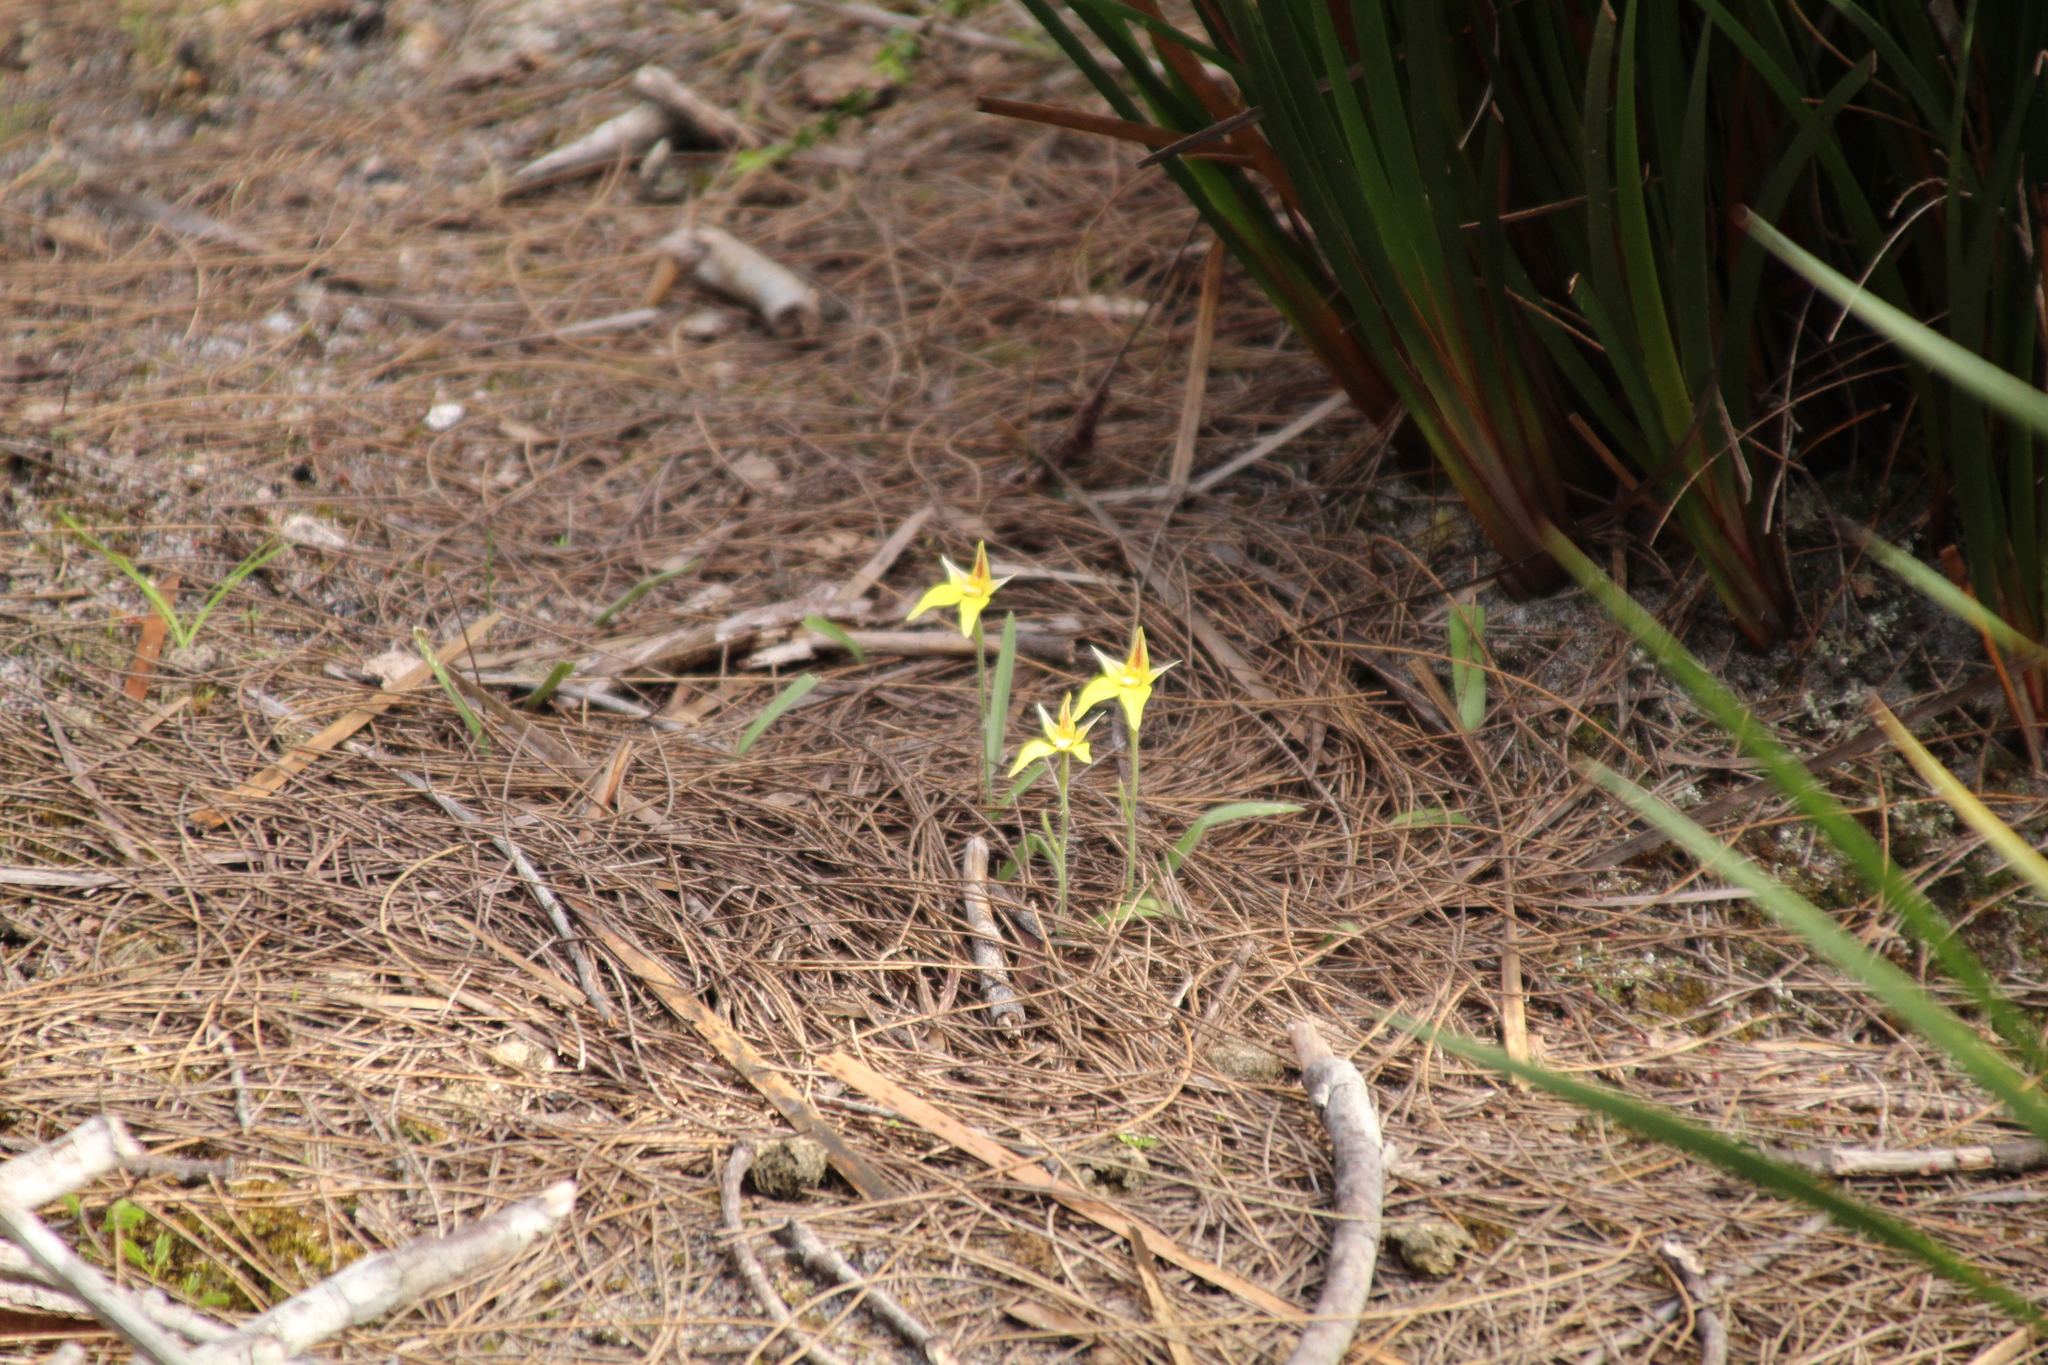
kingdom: Plantae
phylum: Tracheophyta
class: Liliopsida
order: Asparagales
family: Orchidaceae
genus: Caladenia
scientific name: Caladenia flava
